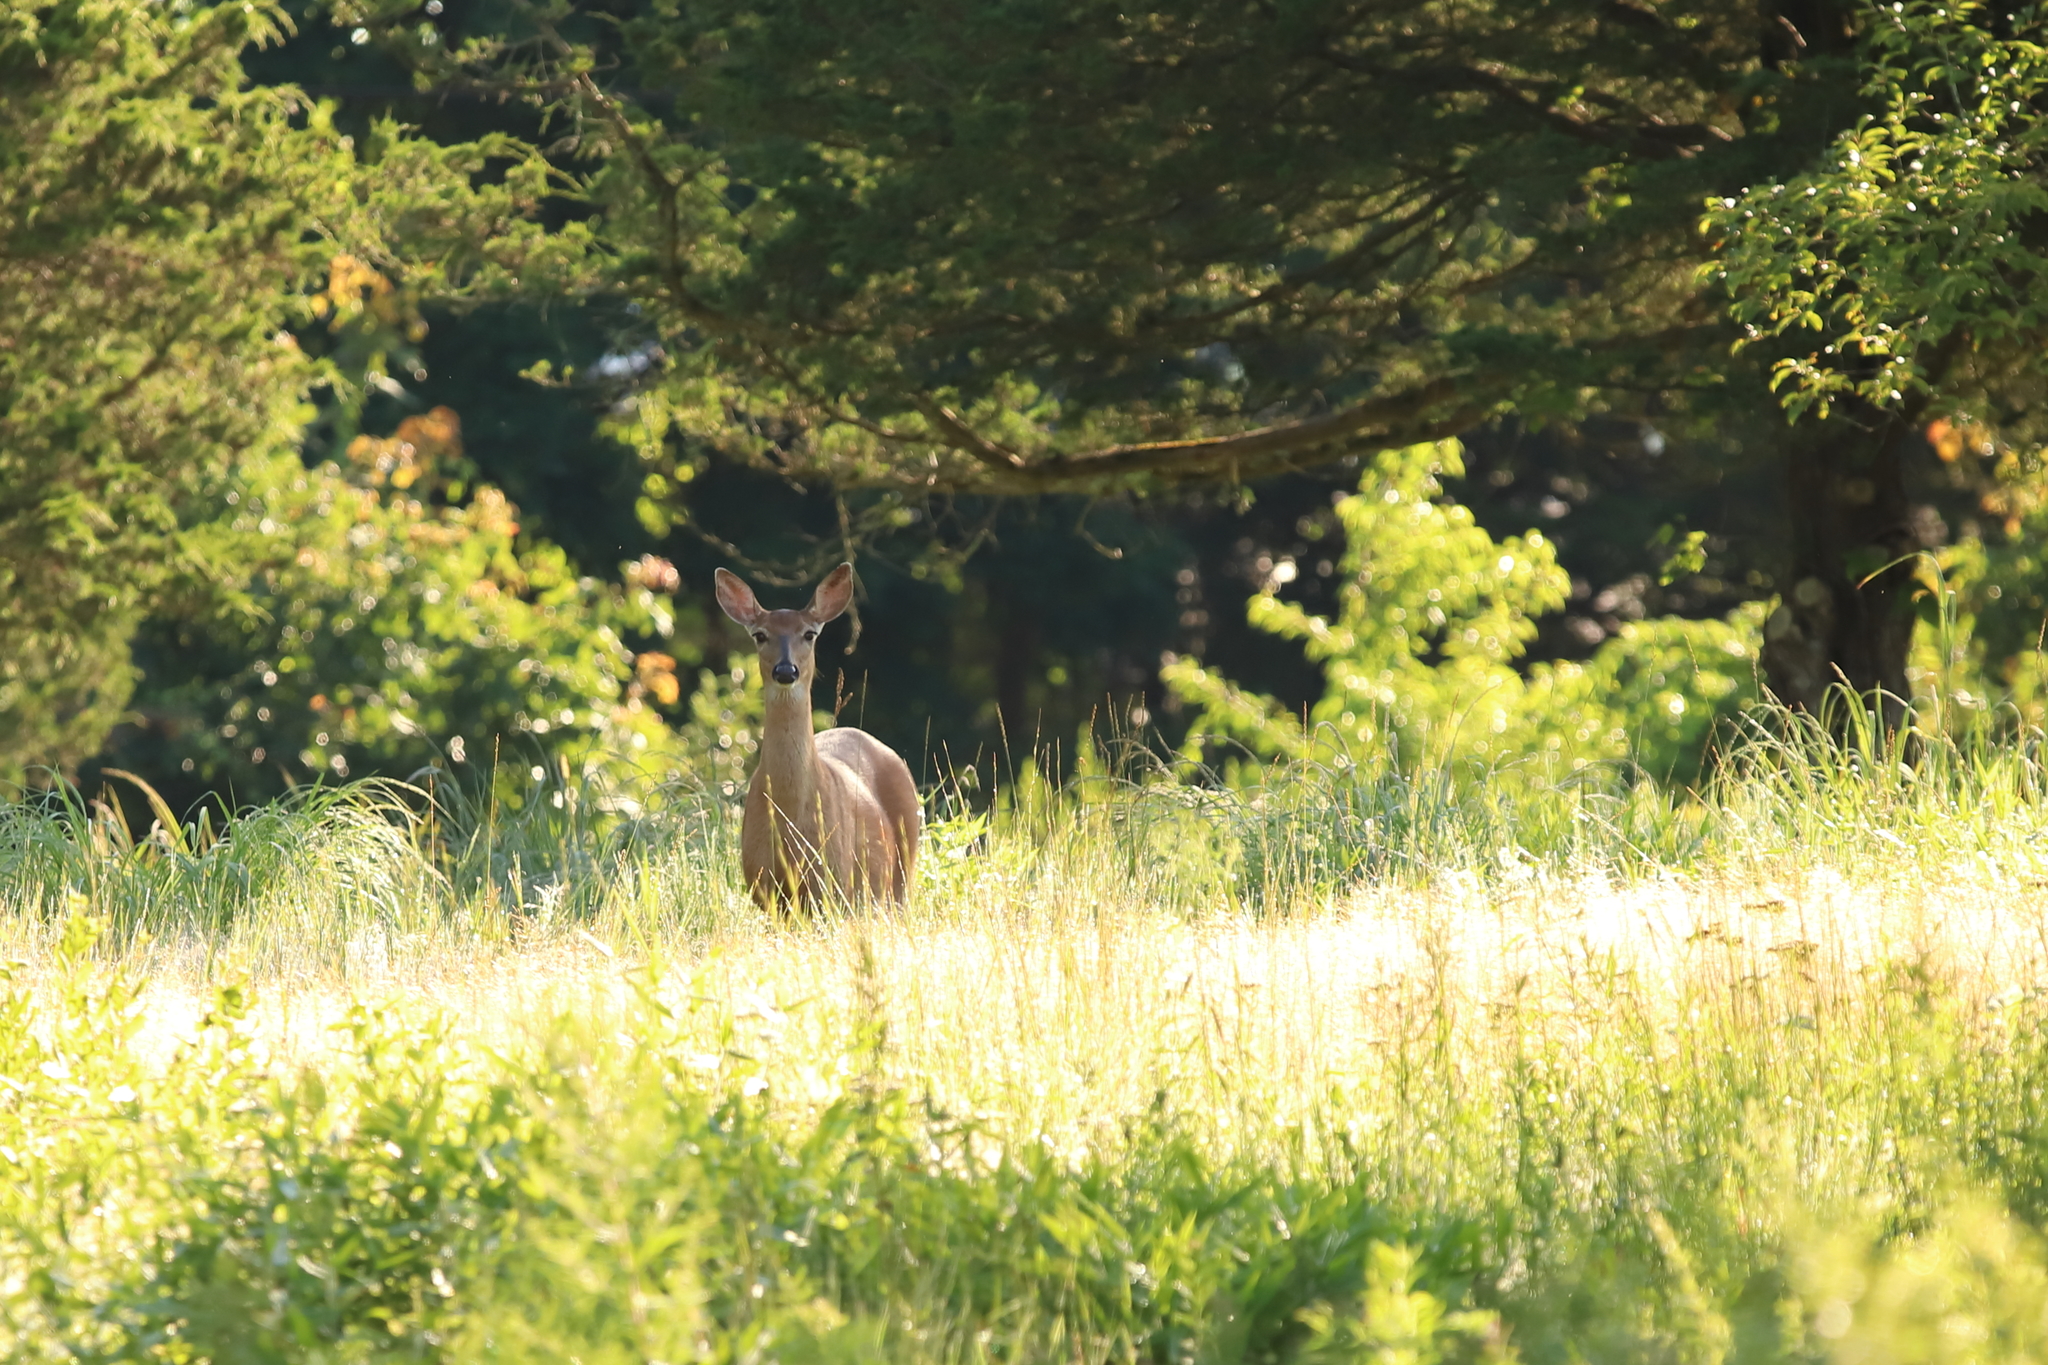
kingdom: Animalia
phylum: Chordata
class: Mammalia
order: Artiodactyla
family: Cervidae
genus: Odocoileus
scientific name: Odocoileus virginianus
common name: White-tailed deer
